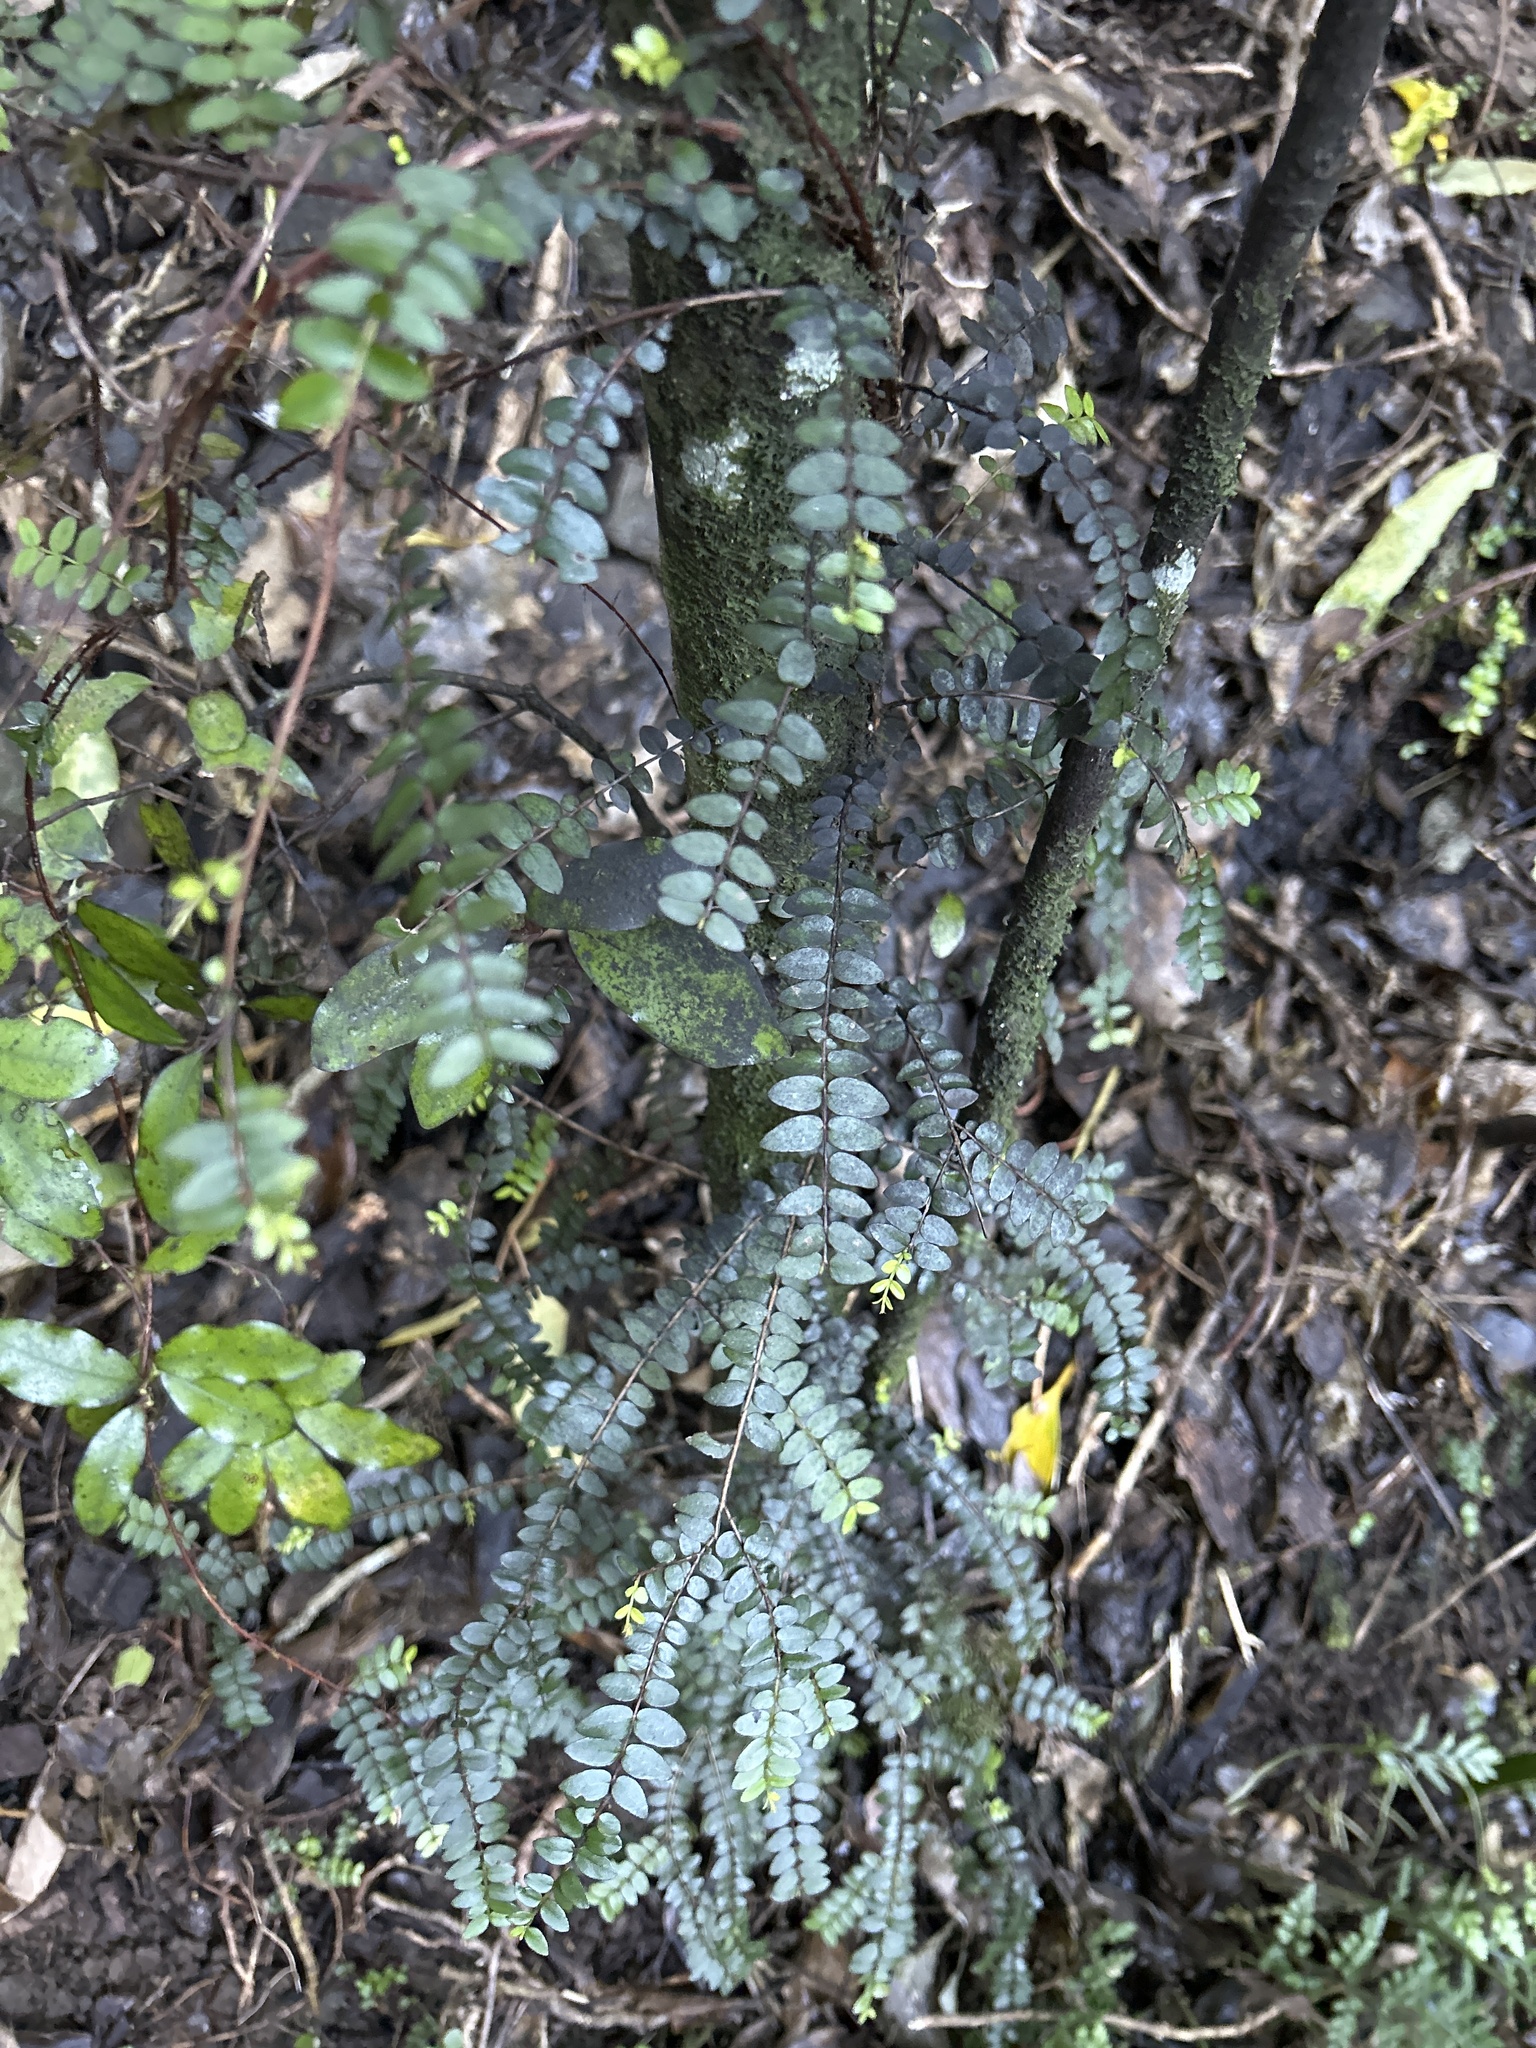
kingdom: Plantae
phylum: Tracheophyta
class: Magnoliopsida
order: Myrtales
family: Myrtaceae
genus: Metrosideros
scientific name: Metrosideros diffusa
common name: Small ratavine
